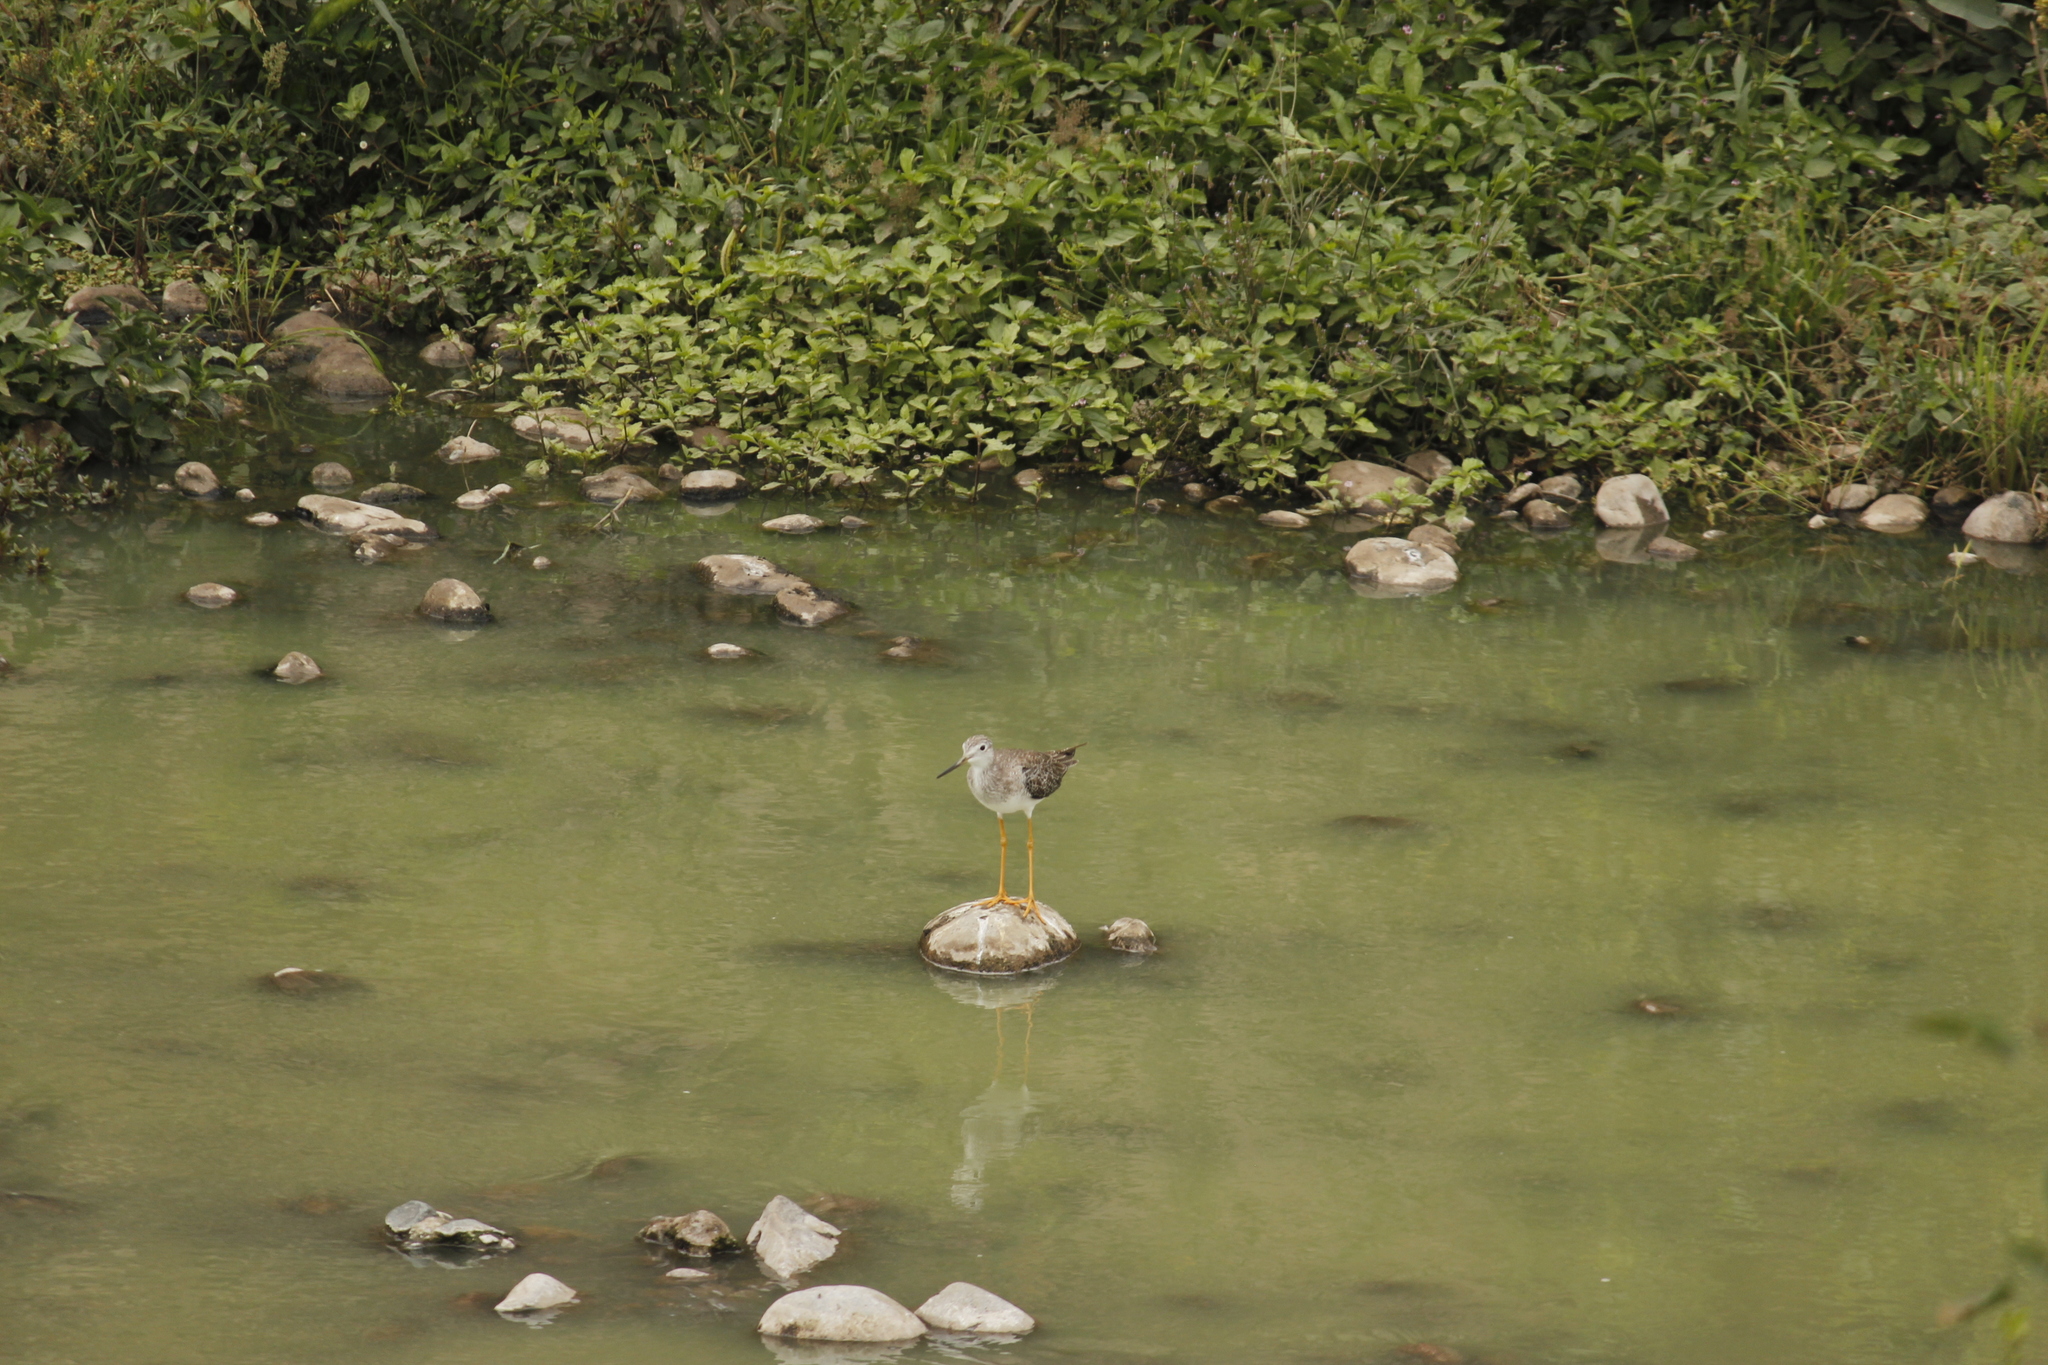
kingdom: Animalia
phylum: Chordata
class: Aves
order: Charadriiformes
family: Scolopacidae
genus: Tringa
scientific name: Tringa melanoleuca
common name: Greater yellowlegs
